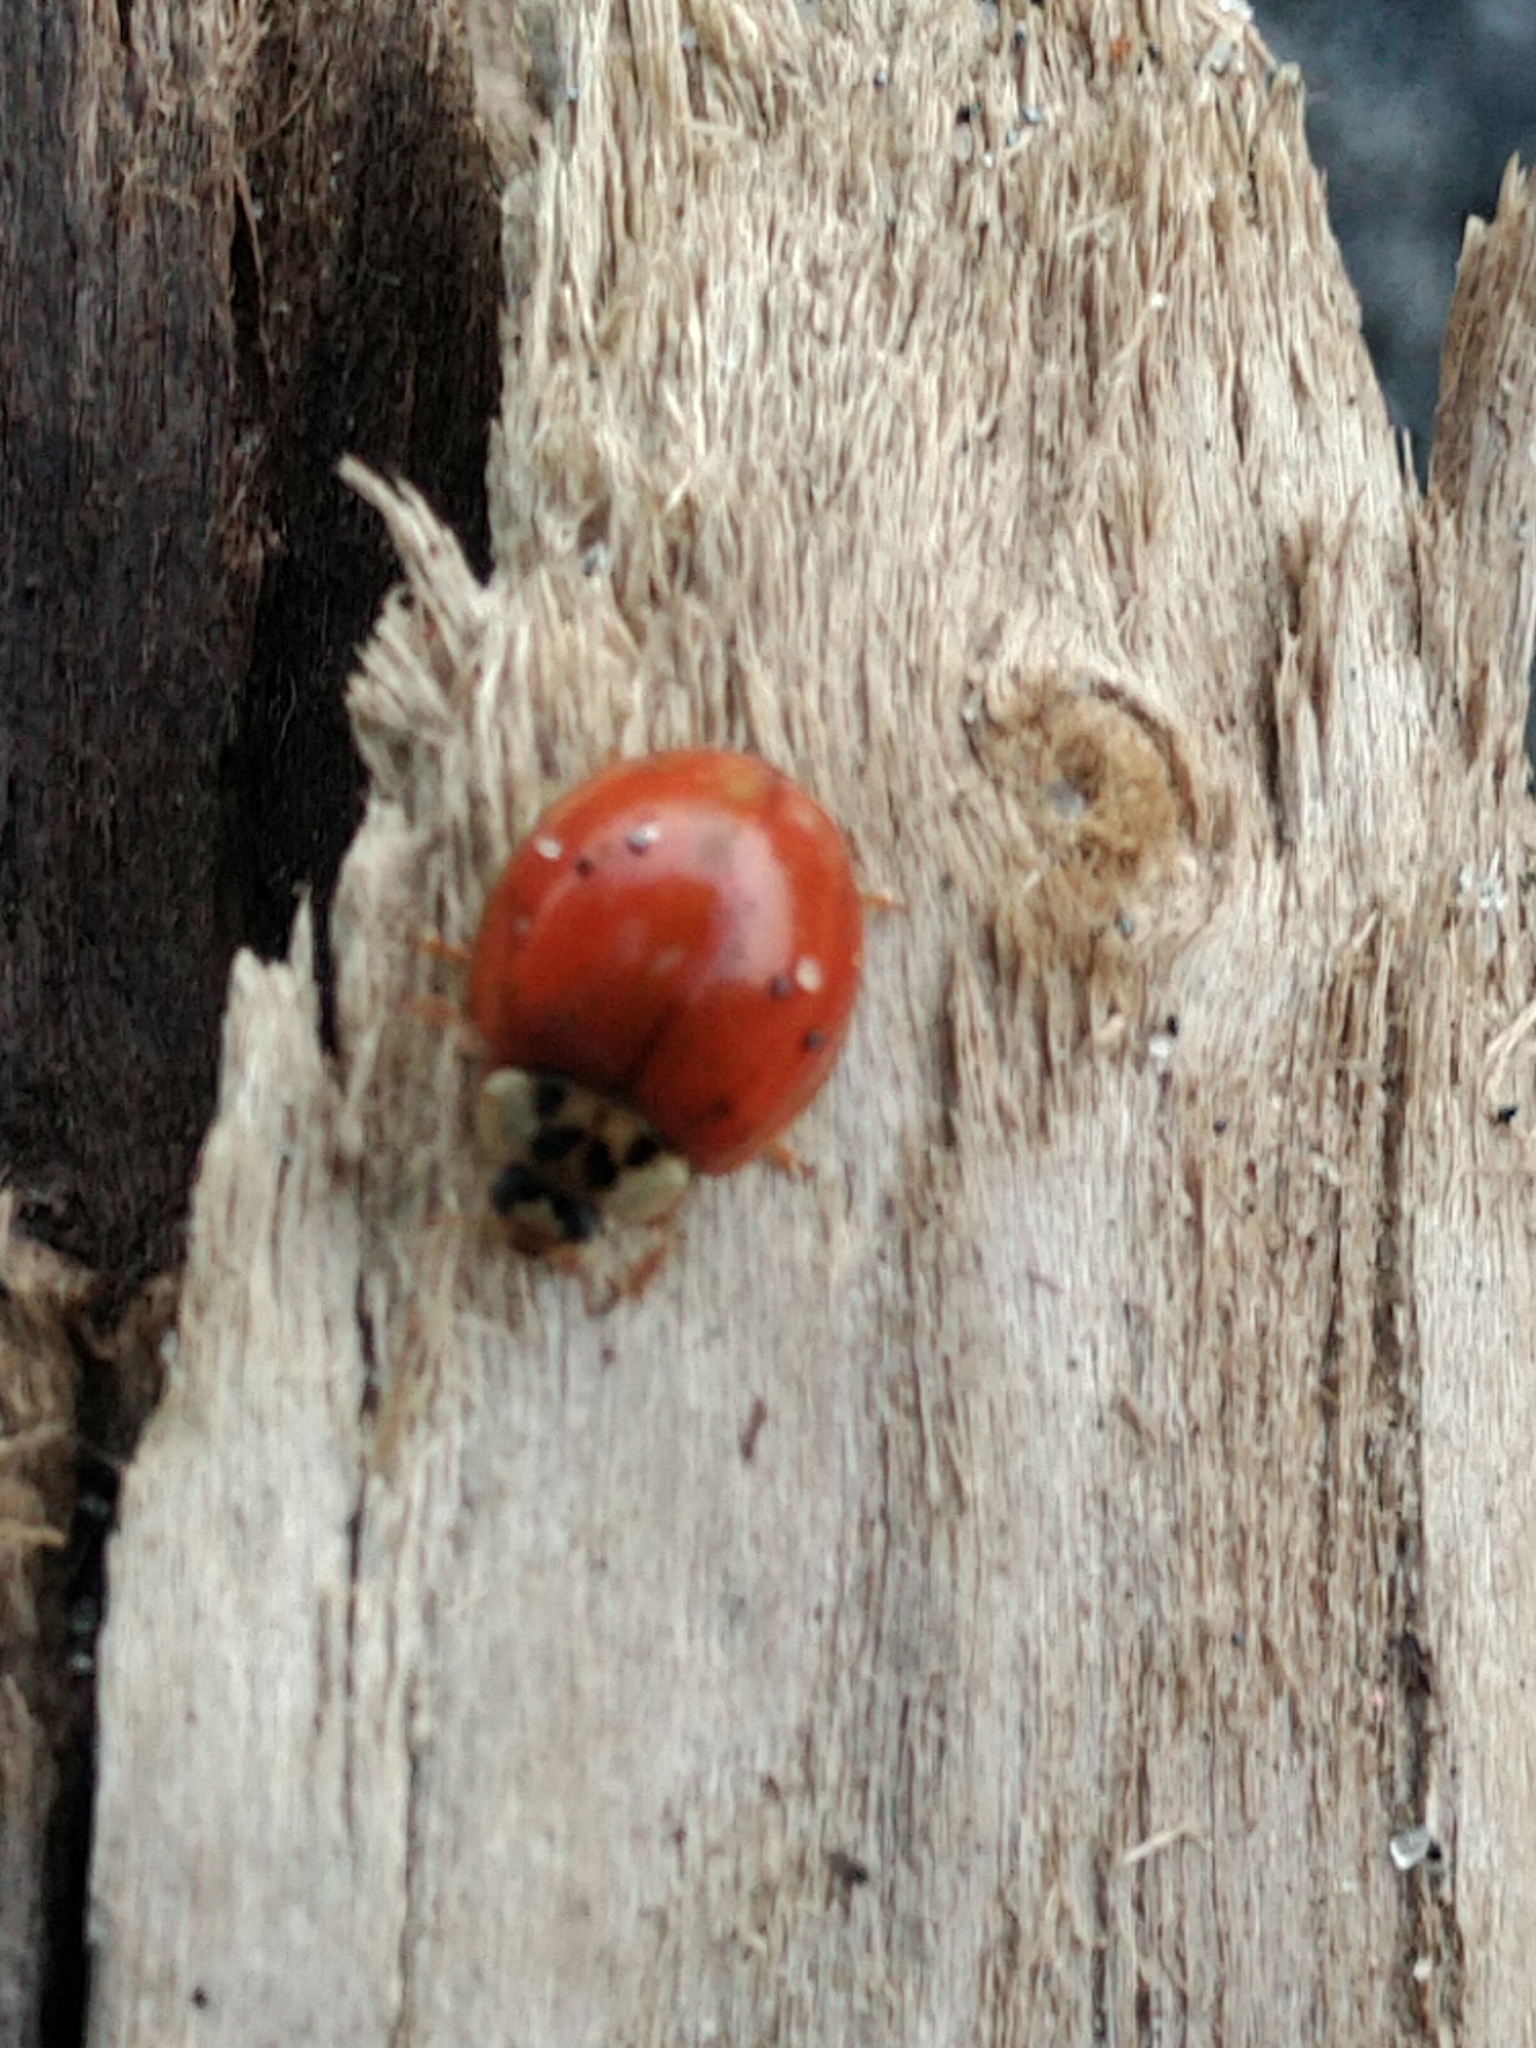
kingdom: Animalia
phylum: Arthropoda
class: Insecta
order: Coleoptera
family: Coccinellidae
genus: Harmonia
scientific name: Harmonia axyridis
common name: Harlequin ladybird
